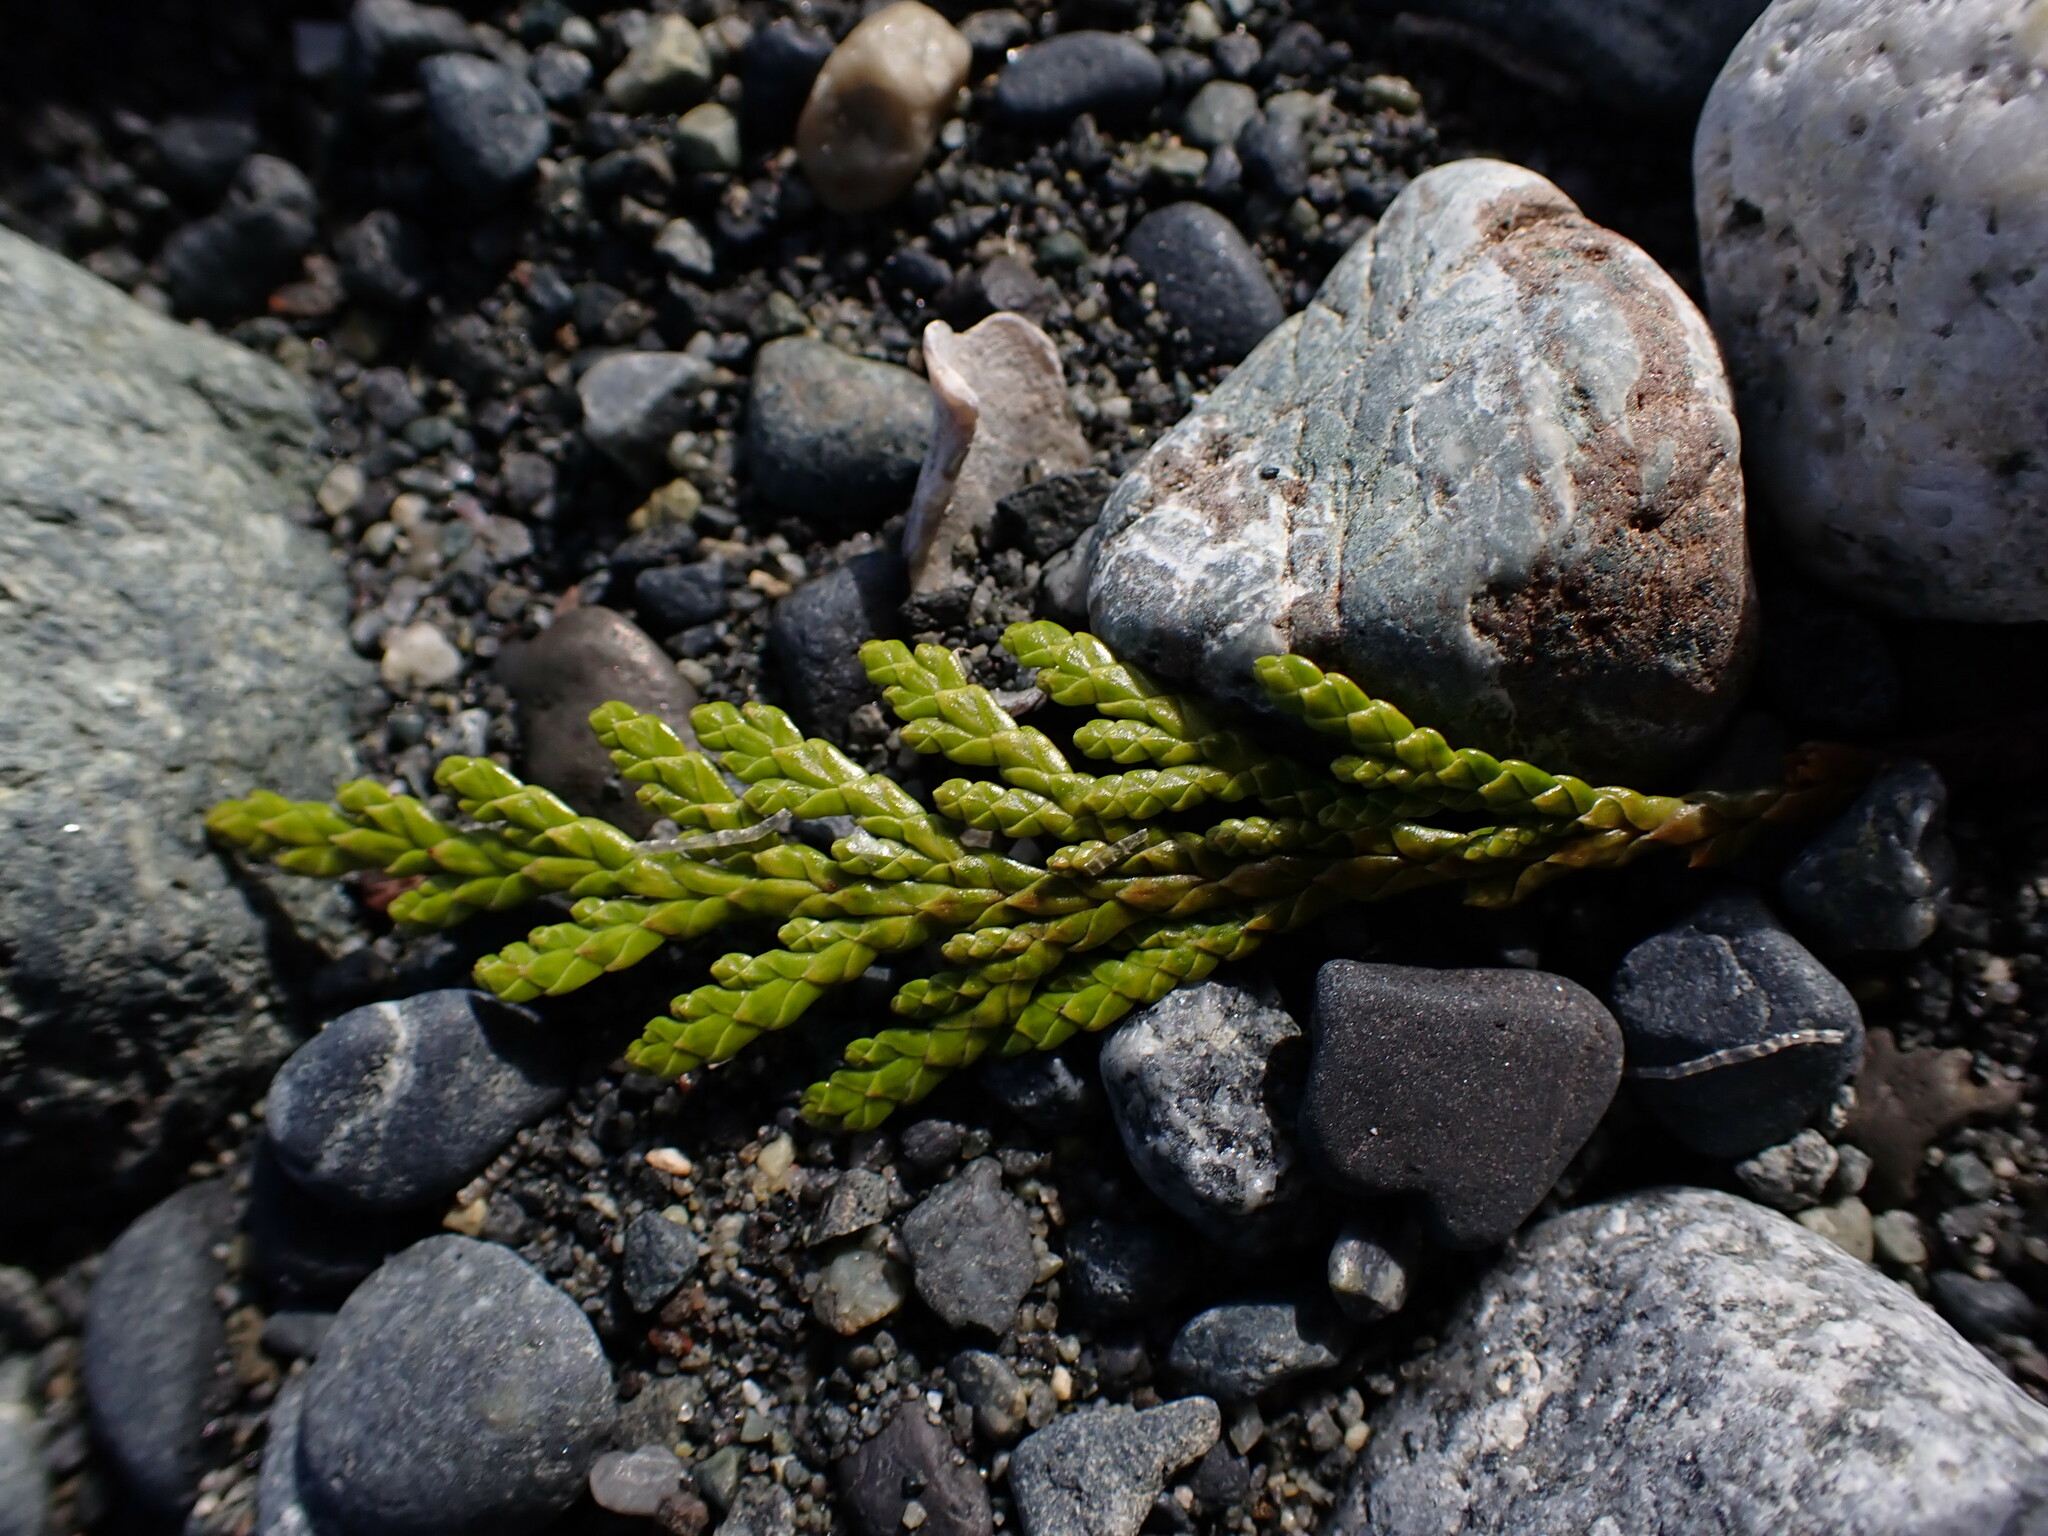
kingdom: Plantae
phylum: Tracheophyta
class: Pinopsida
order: Pinales
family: Cupressaceae
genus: Thuja
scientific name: Thuja plicata
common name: Western red-cedar
